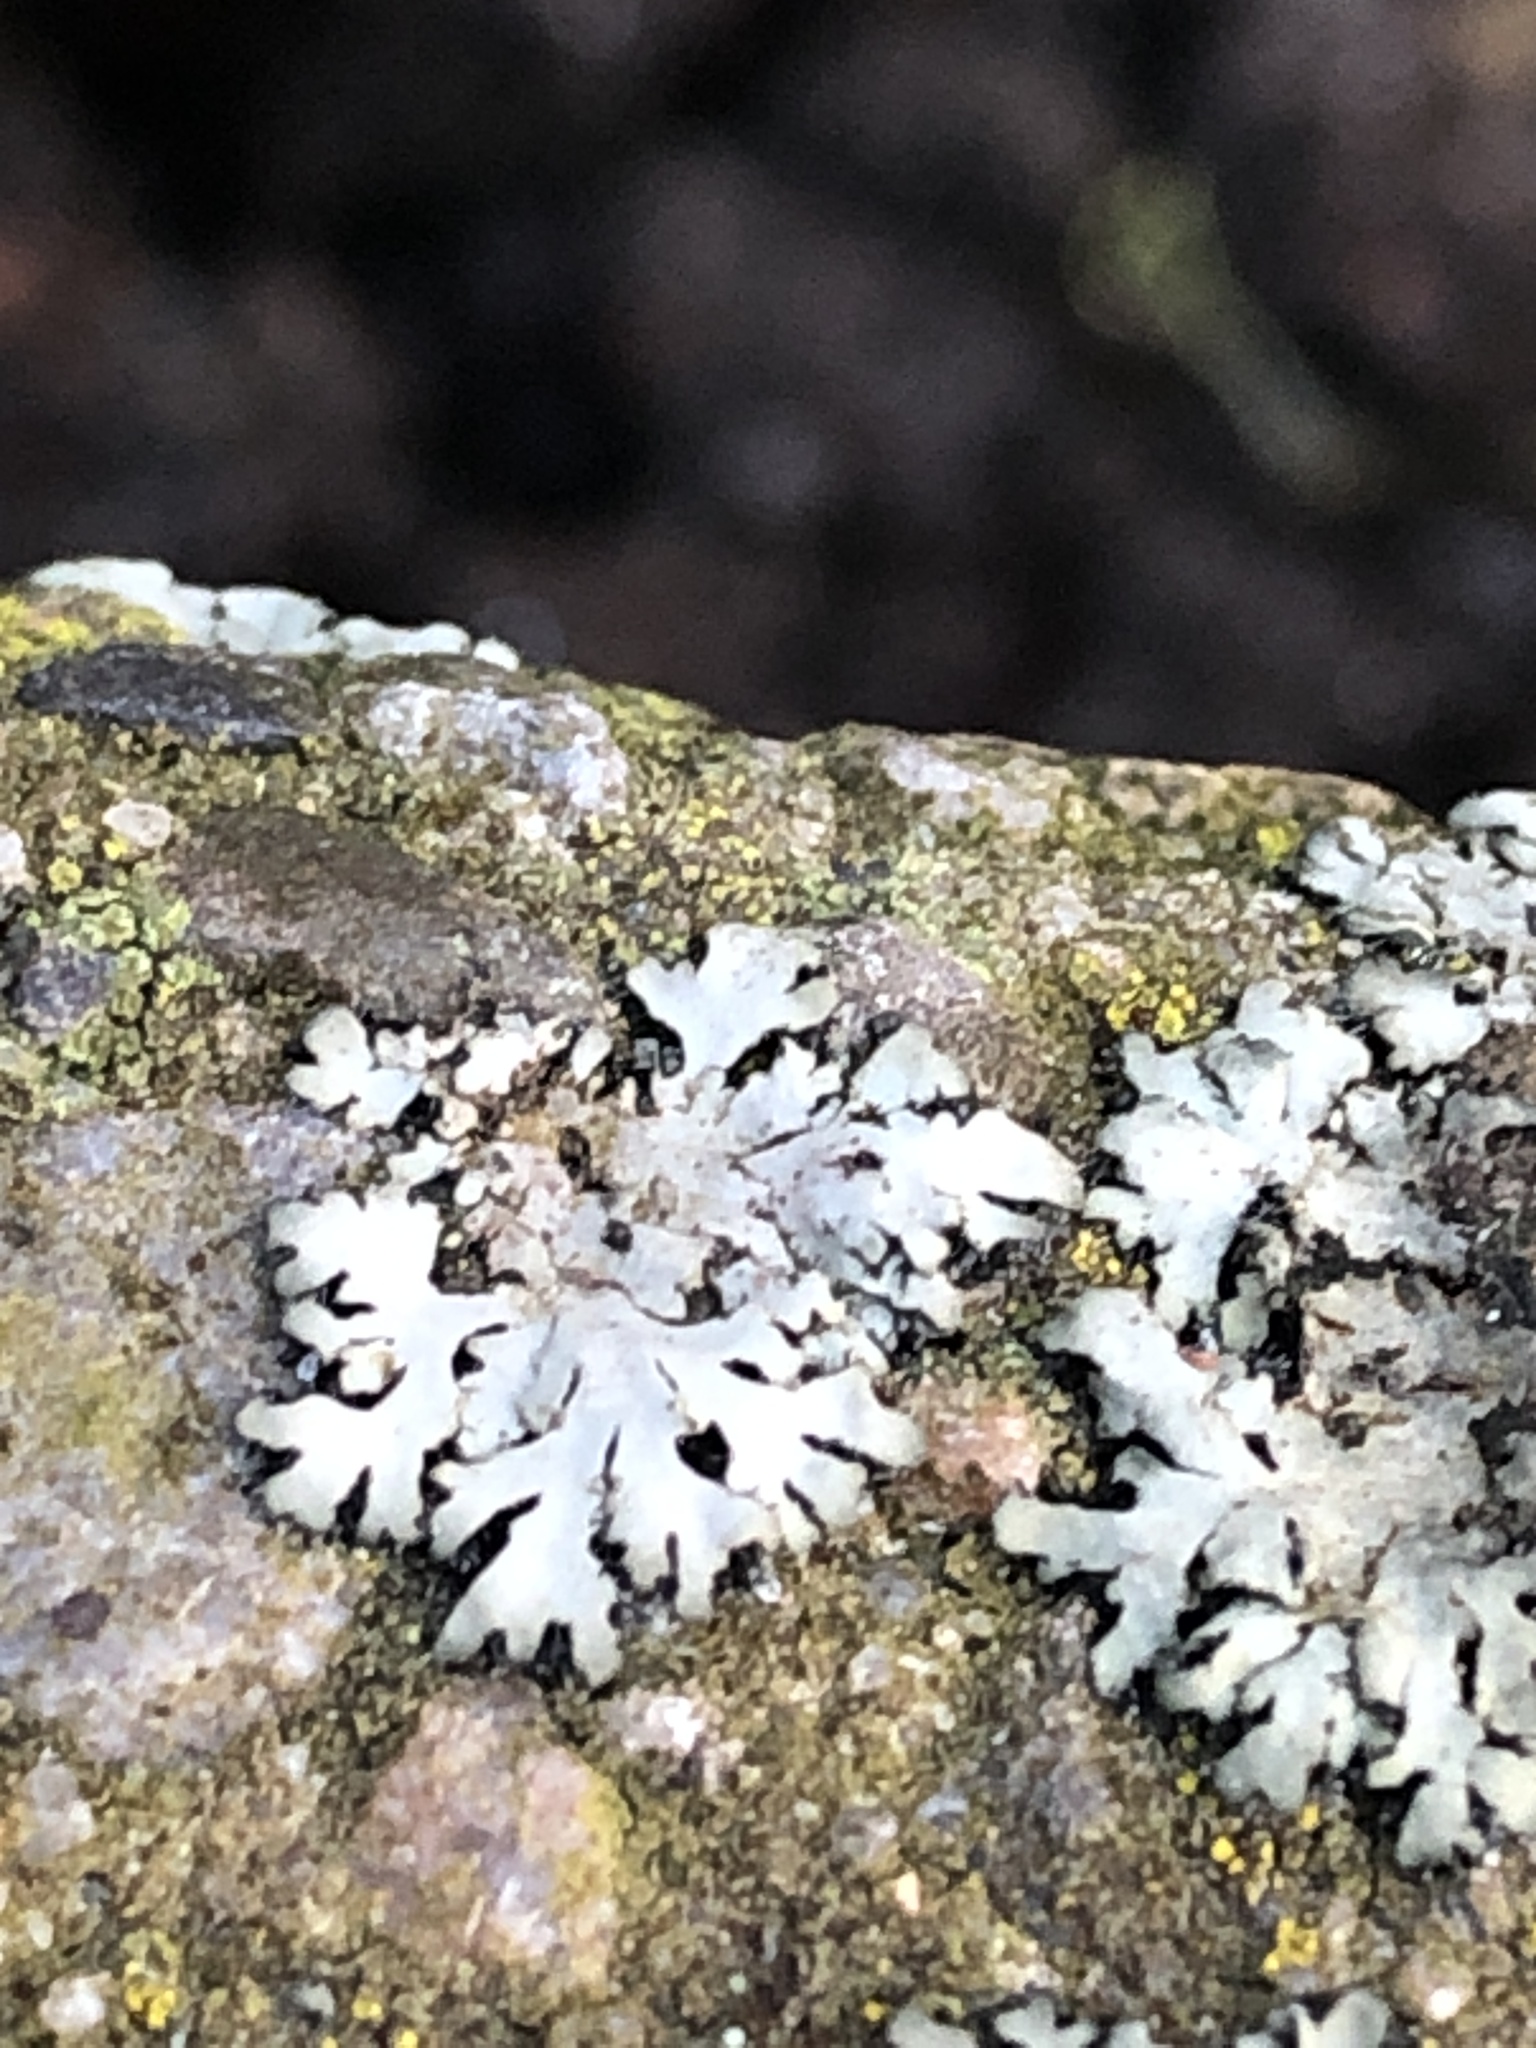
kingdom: Fungi
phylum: Ascomycota
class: Lecanoromycetes
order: Caliciales
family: Physciaceae
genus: Phaeophyscia
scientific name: Phaeophyscia orbicularis
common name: Mealy shadow lichen
